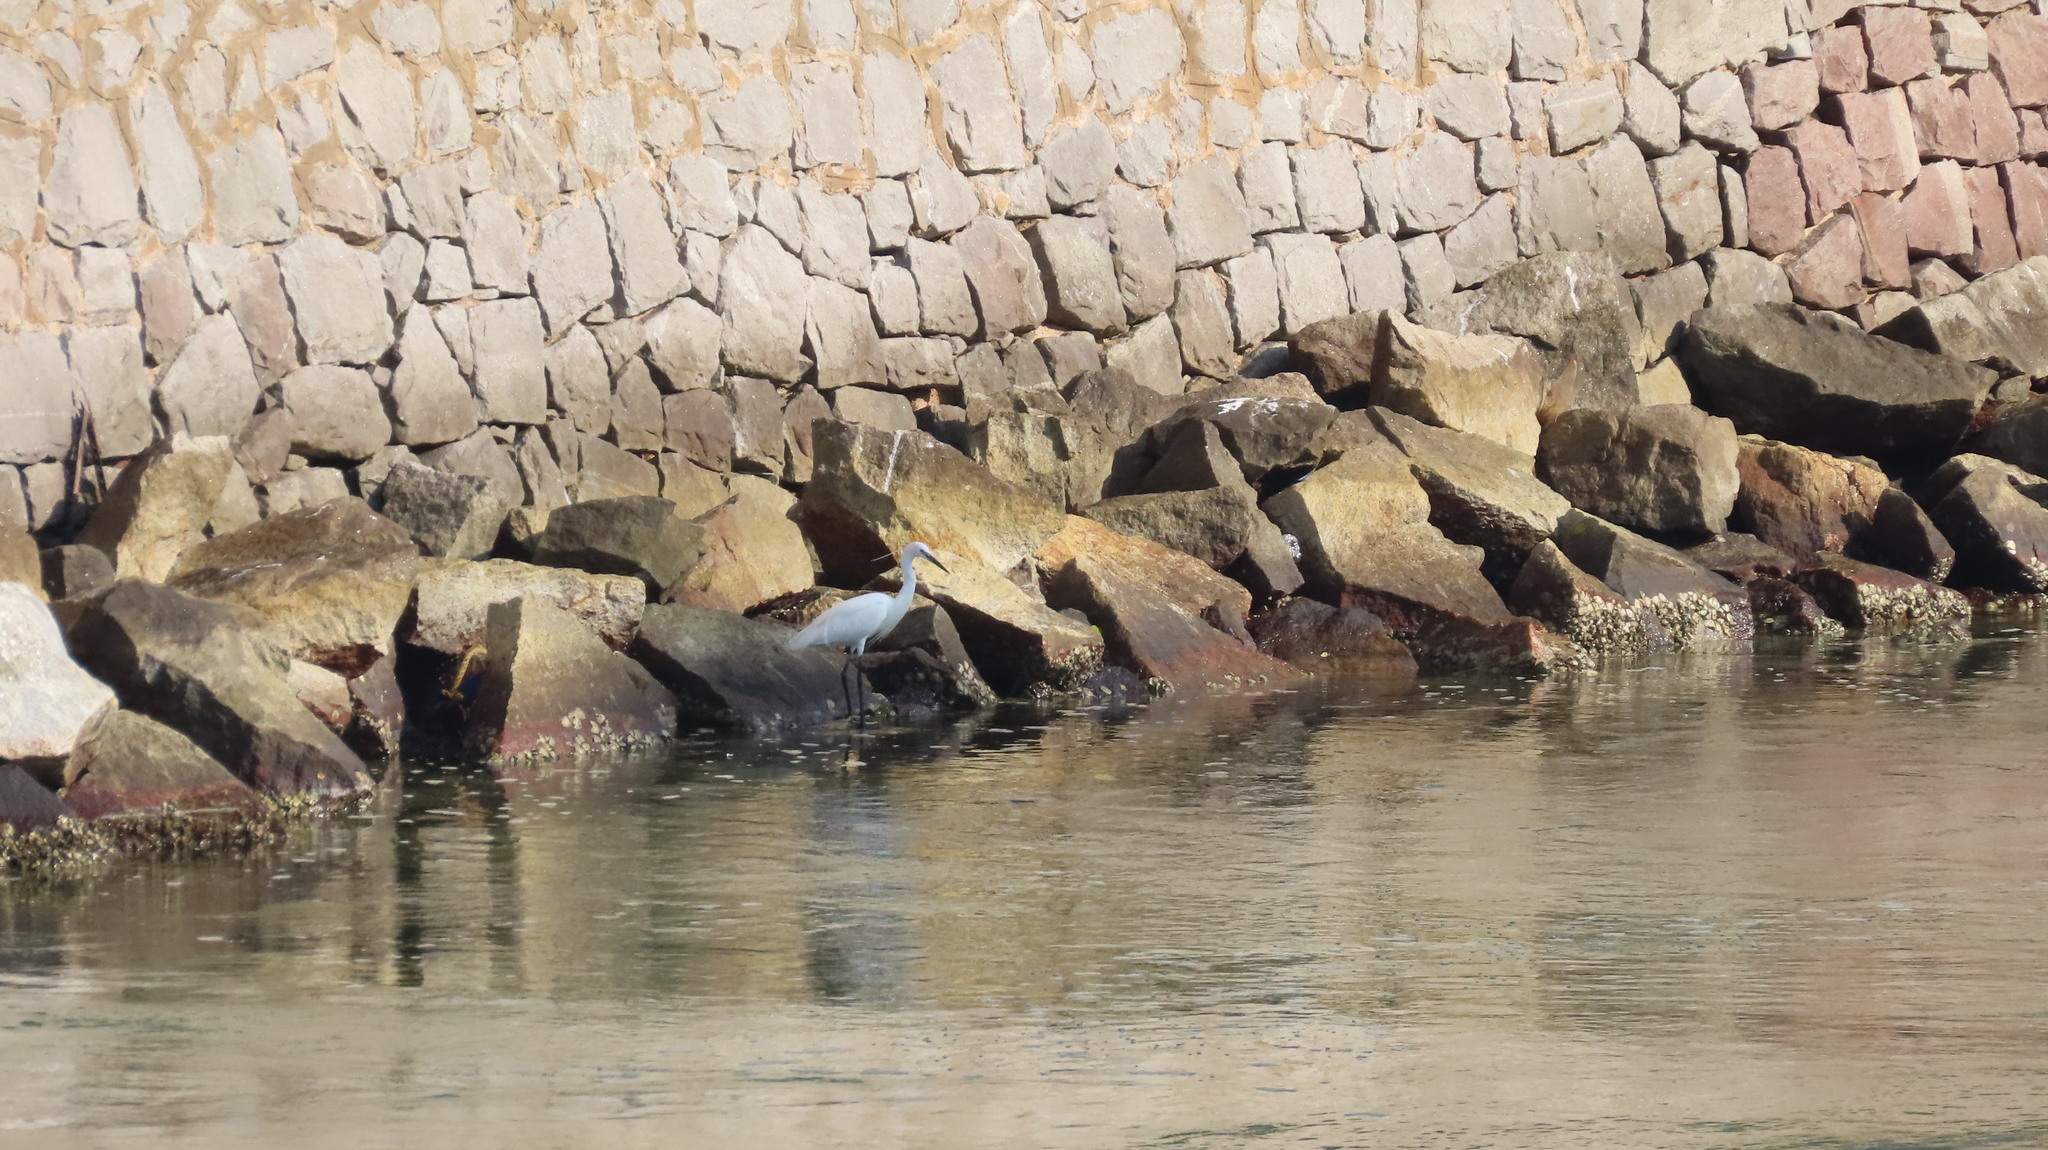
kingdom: Animalia
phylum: Chordata
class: Aves
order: Pelecaniformes
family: Ardeidae
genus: Egretta
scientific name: Egretta garzetta
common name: Little egret
